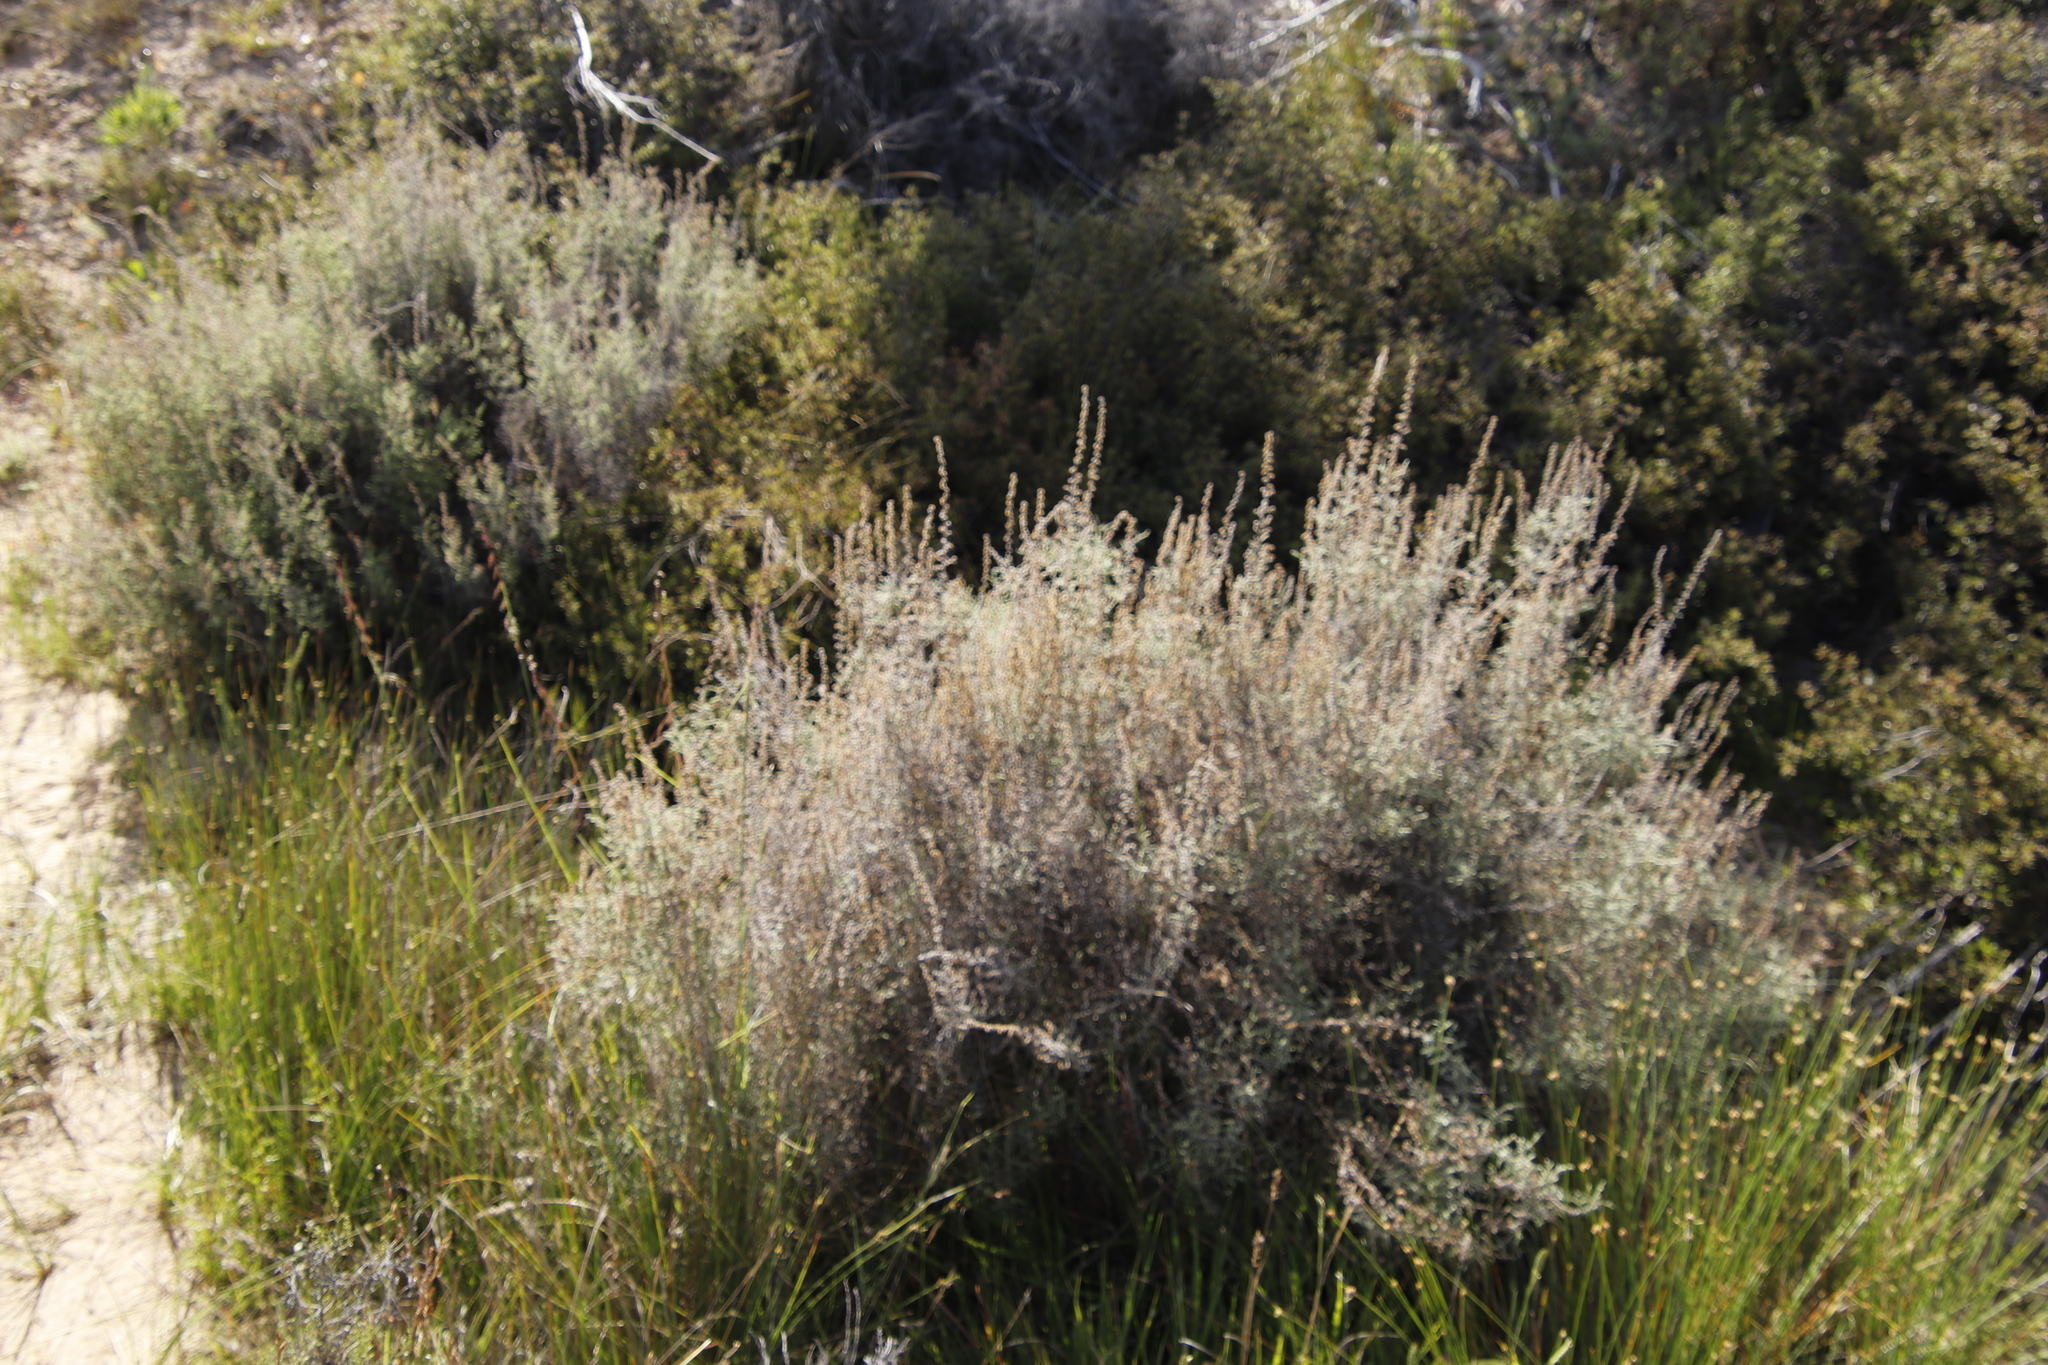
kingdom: Plantae
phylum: Tracheophyta
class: Magnoliopsida
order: Asterales
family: Asteraceae
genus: Seriphium
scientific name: Seriphium plumosum
